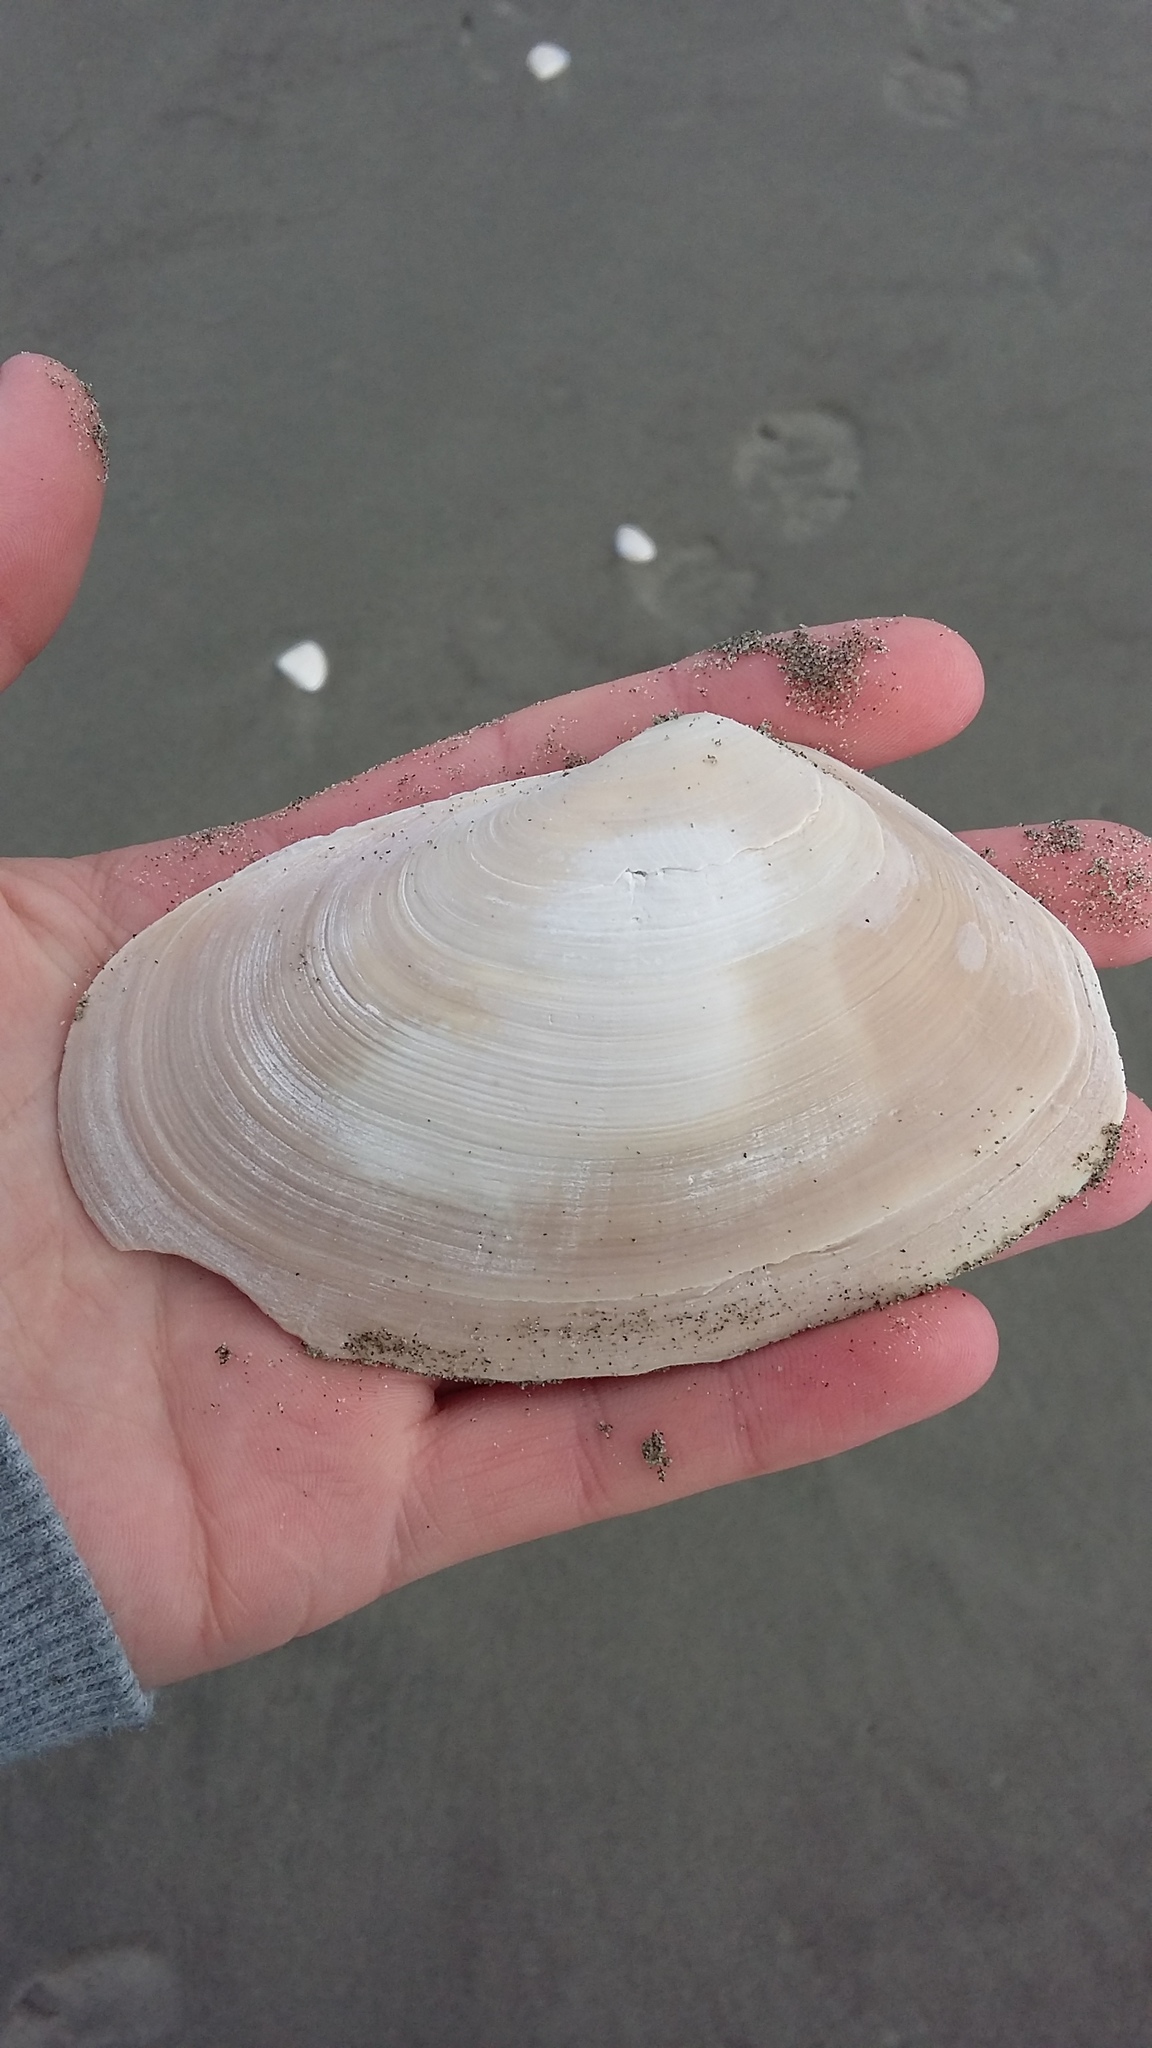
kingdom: Animalia
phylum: Mollusca
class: Bivalvia
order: Venerida
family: Mesodesmatidae
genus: Paphies
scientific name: Paphies ventricosa
